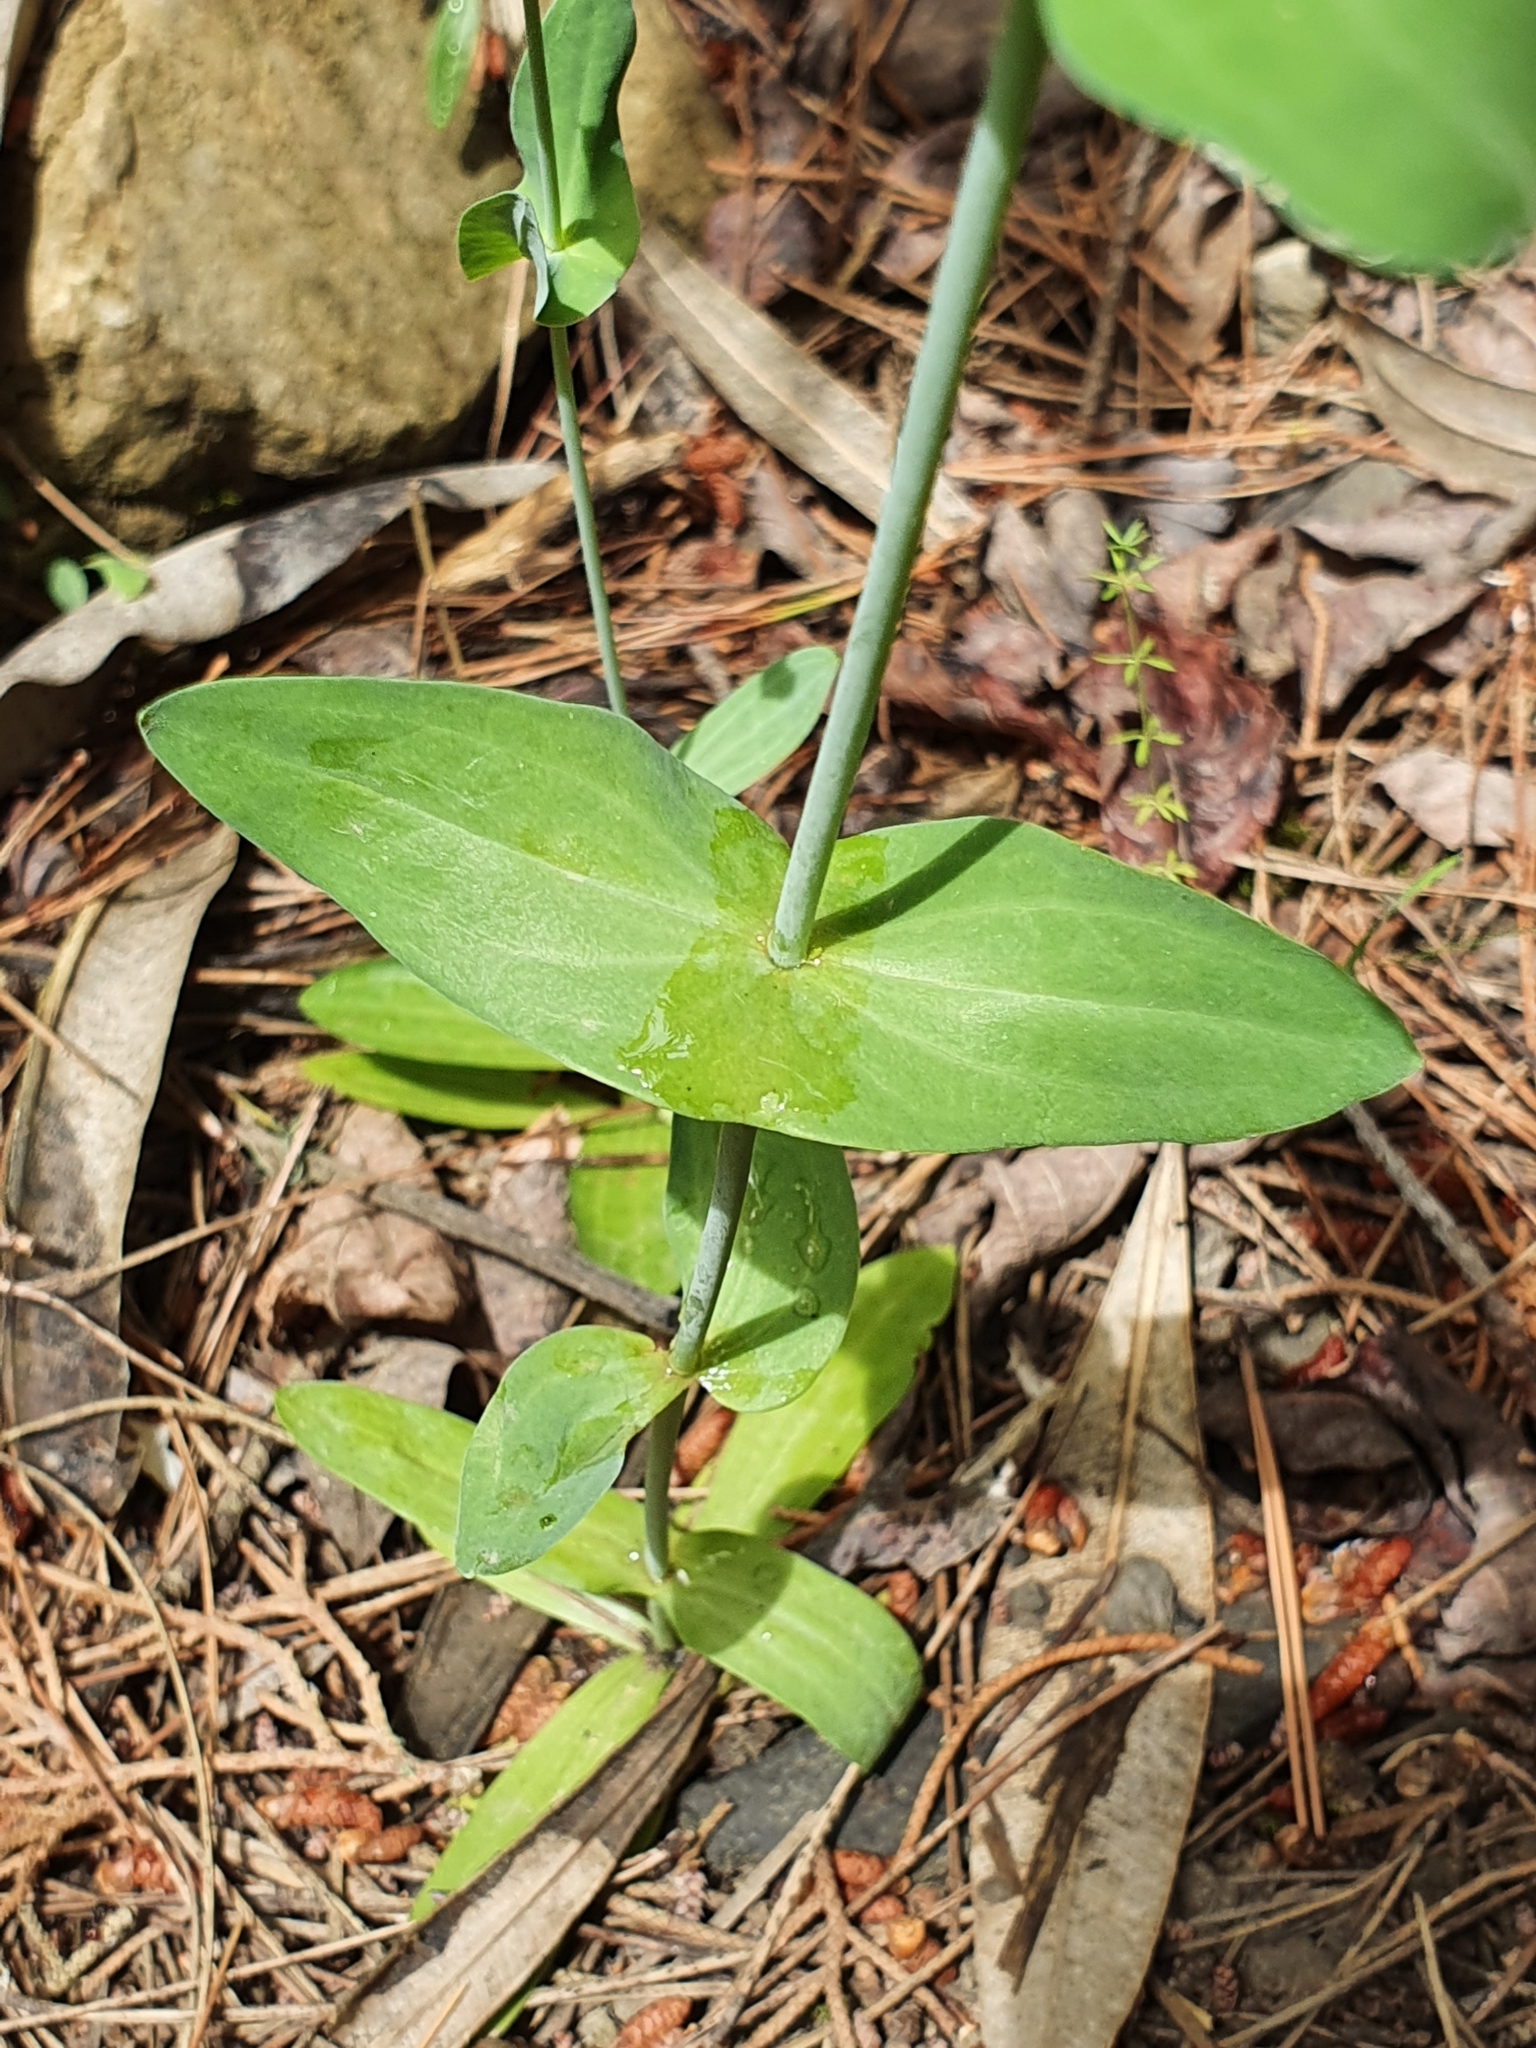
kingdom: Plantae
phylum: Tracheophyta
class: Magnoliopsida
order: Gentianales
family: Gentianaceae
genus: Blackstonia
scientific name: Blackstonia grandiflora
